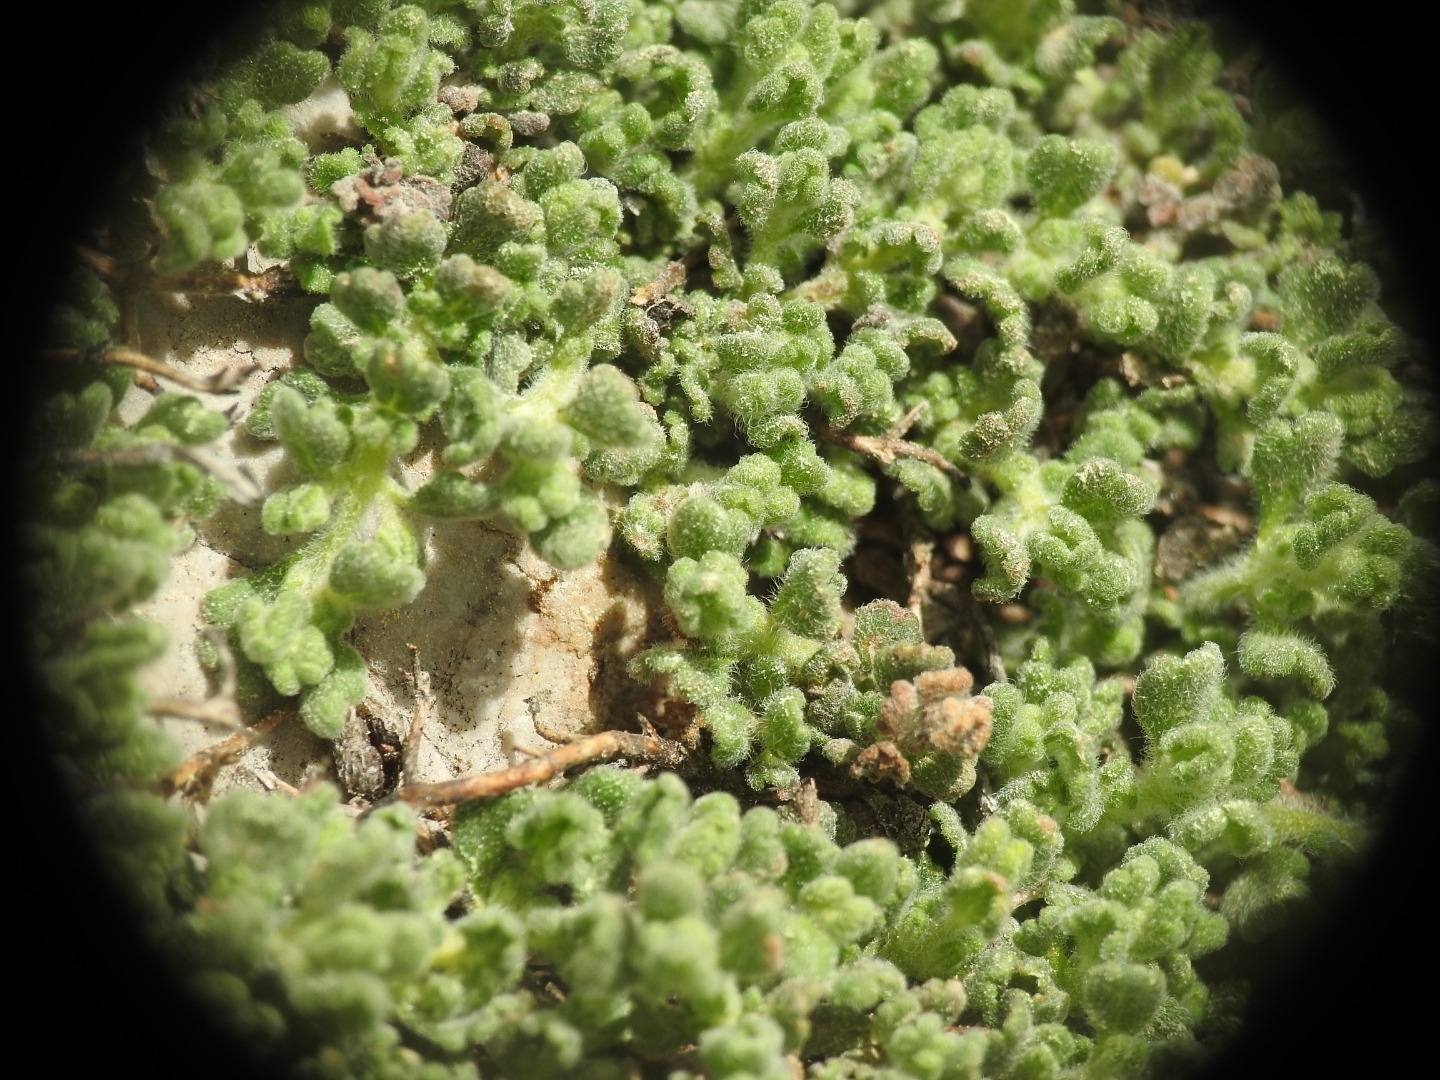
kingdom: Plantae
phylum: Tracheophyta
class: Magnoliopsida
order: Lamiales
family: Lamiaceae
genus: Teucrium
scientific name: Teucrium alpestre
